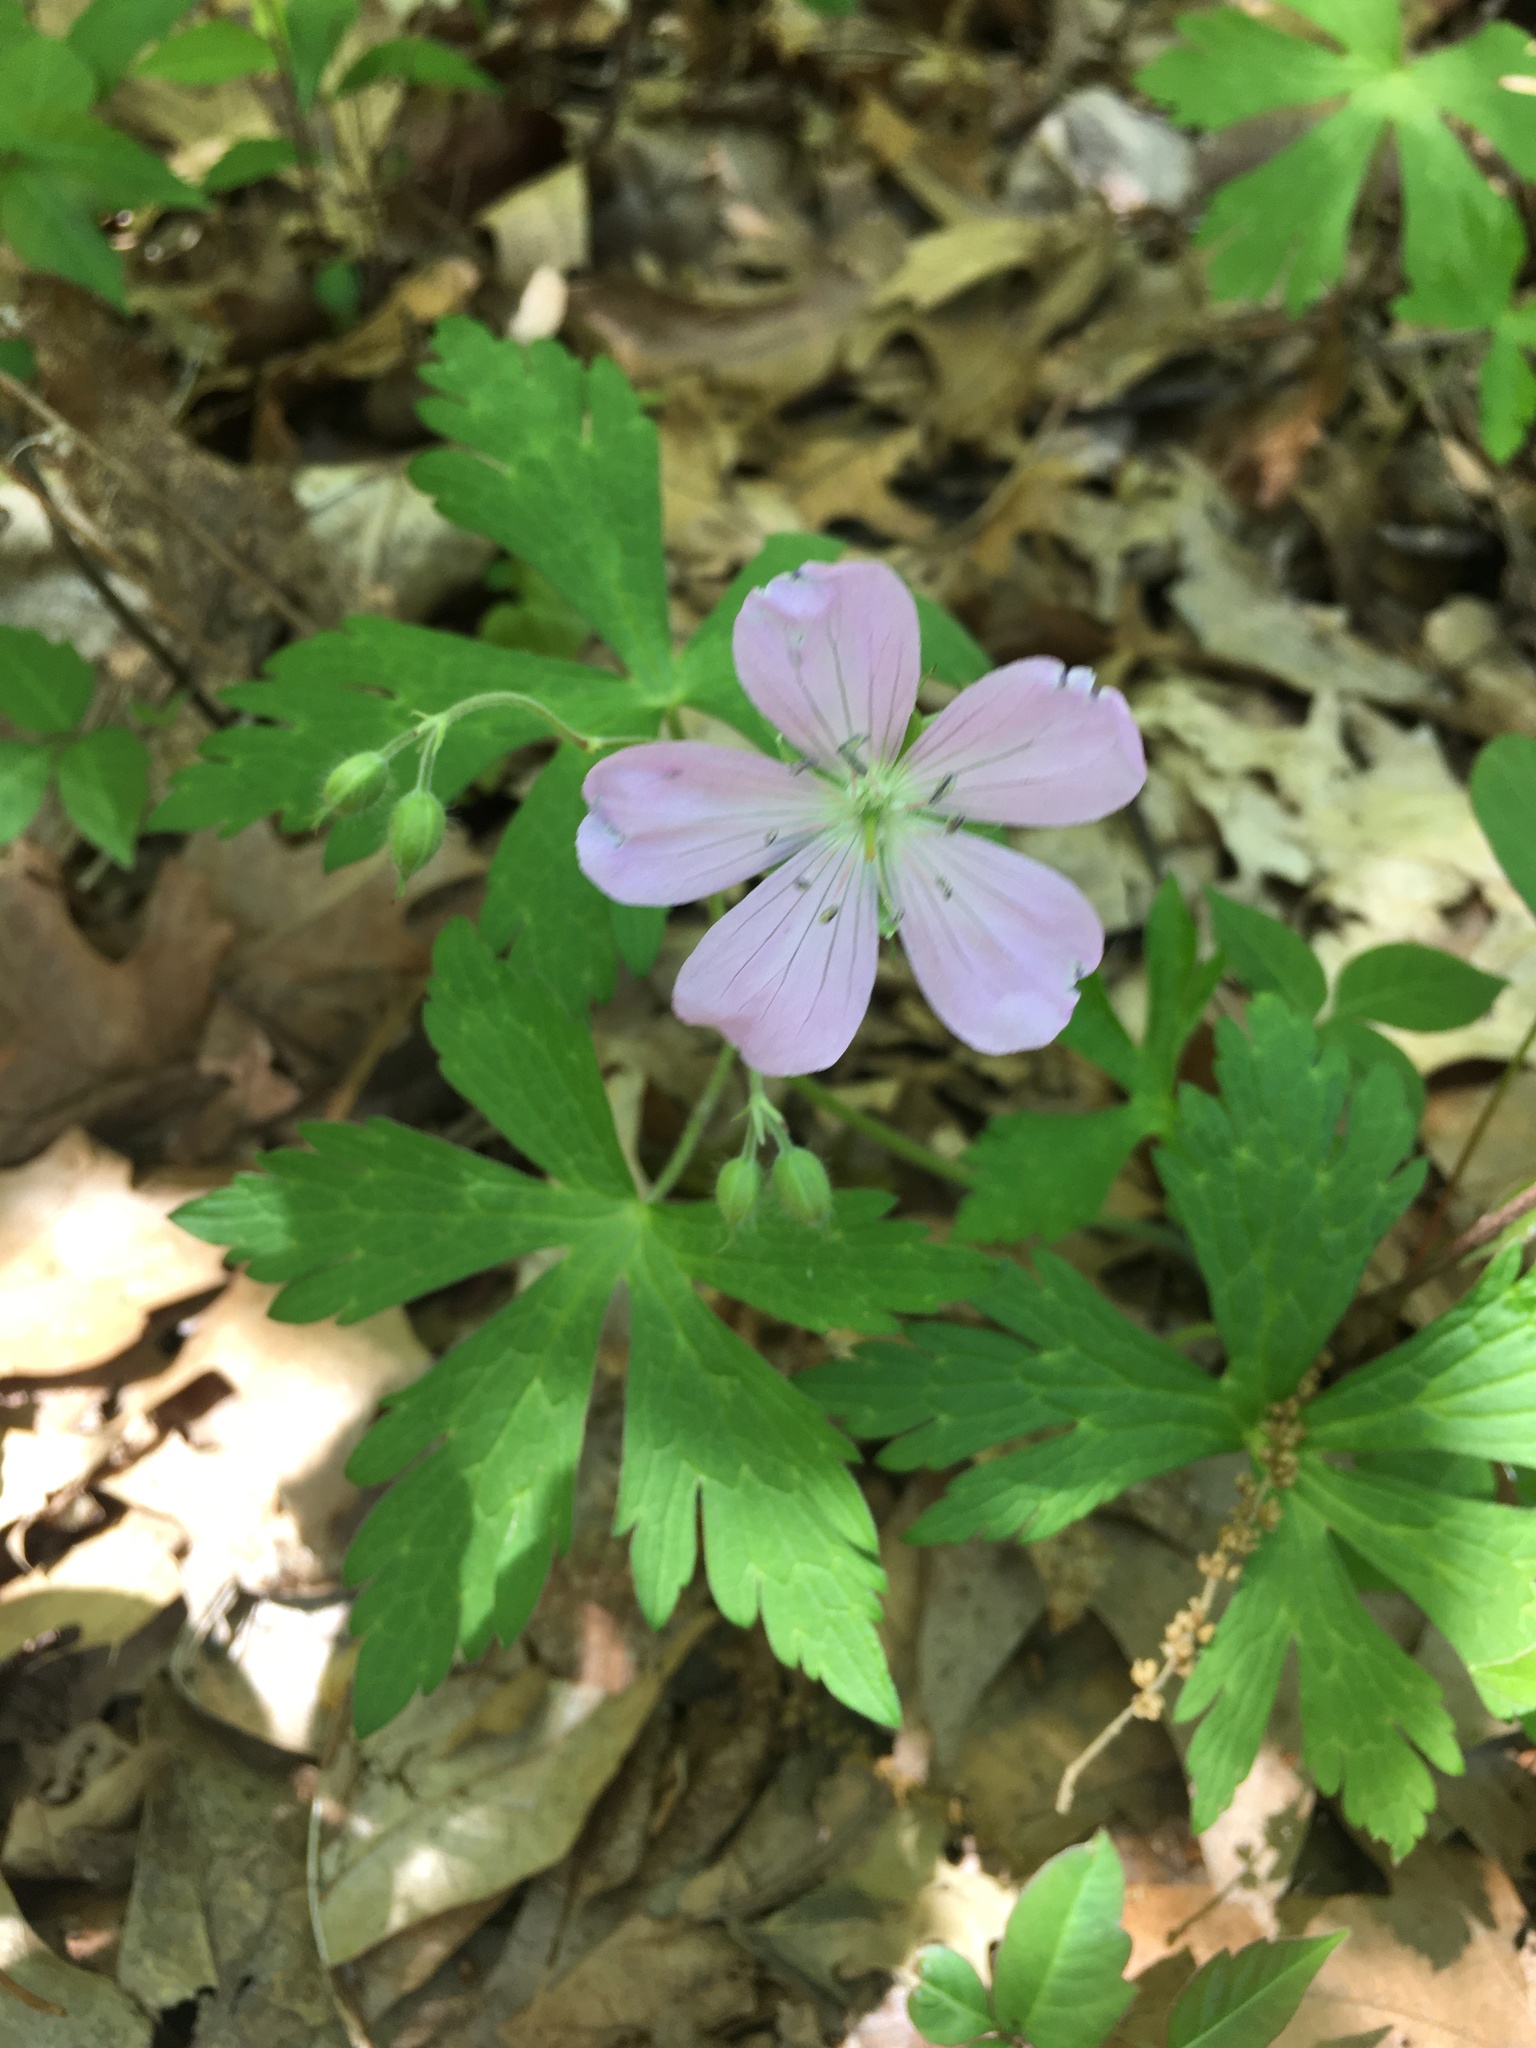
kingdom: Plantae
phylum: Tracheophyta
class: Magnoliopsida
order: Geraniales
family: Geraniaceae
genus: Geranium
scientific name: Geranium maculatum
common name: Spotted geranium
